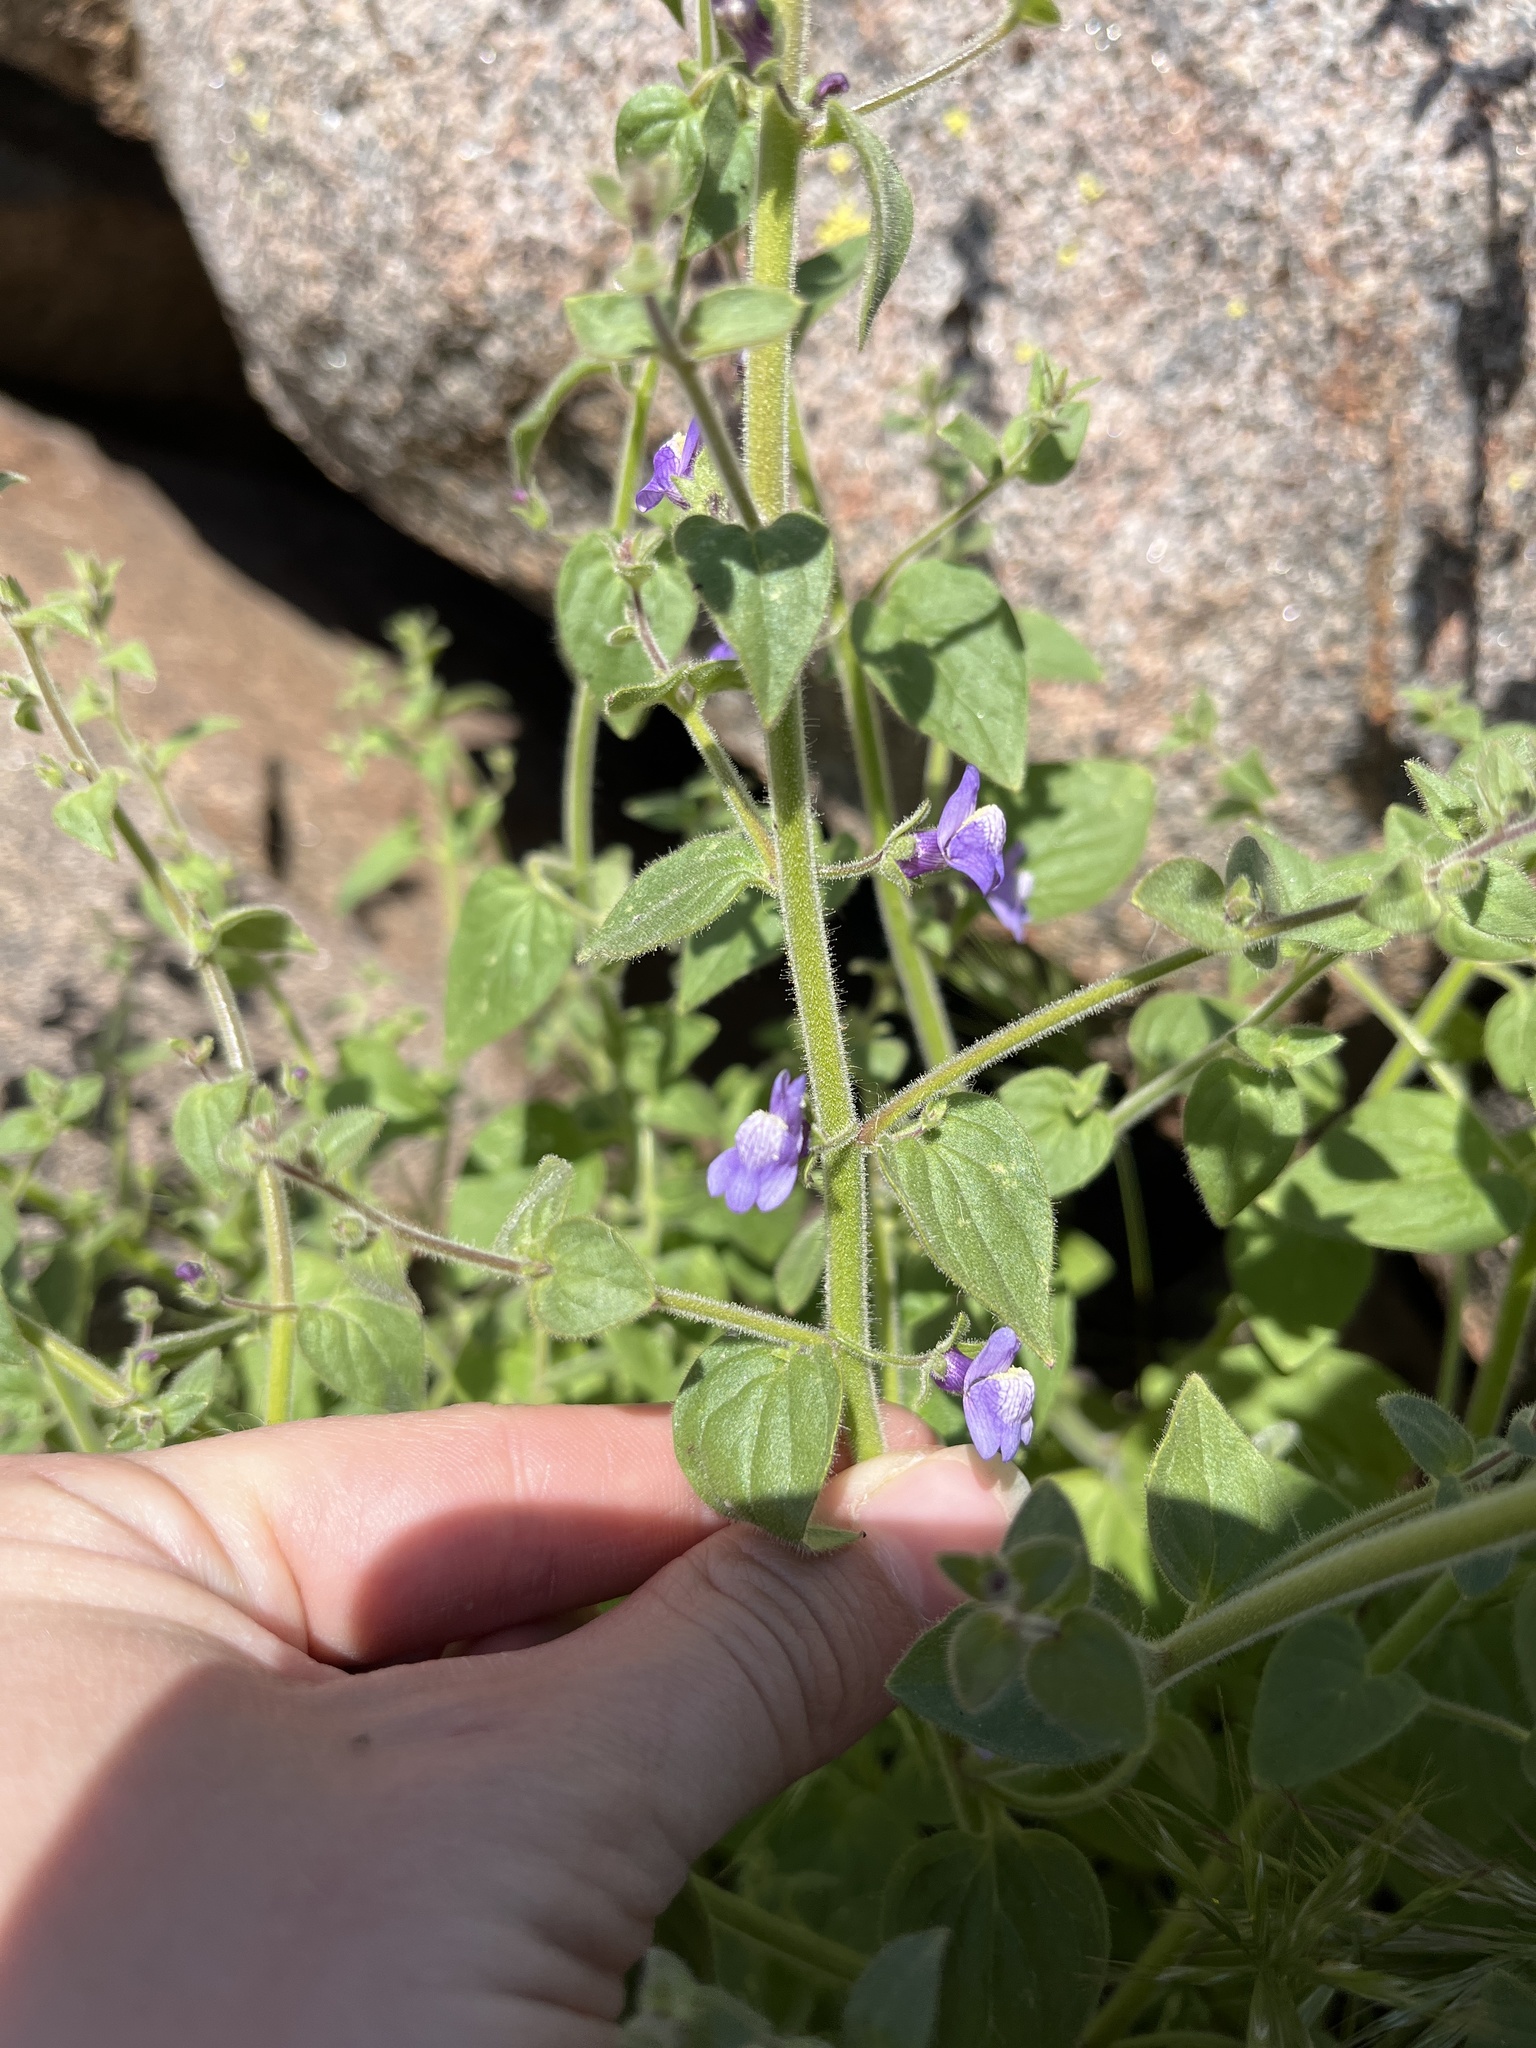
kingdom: Plantae
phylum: Tracheophyta
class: Magnoliopsida
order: Lamiales
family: Plantaginaceae
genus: Sairocarpus
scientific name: Sairocarpus nuttallianus
